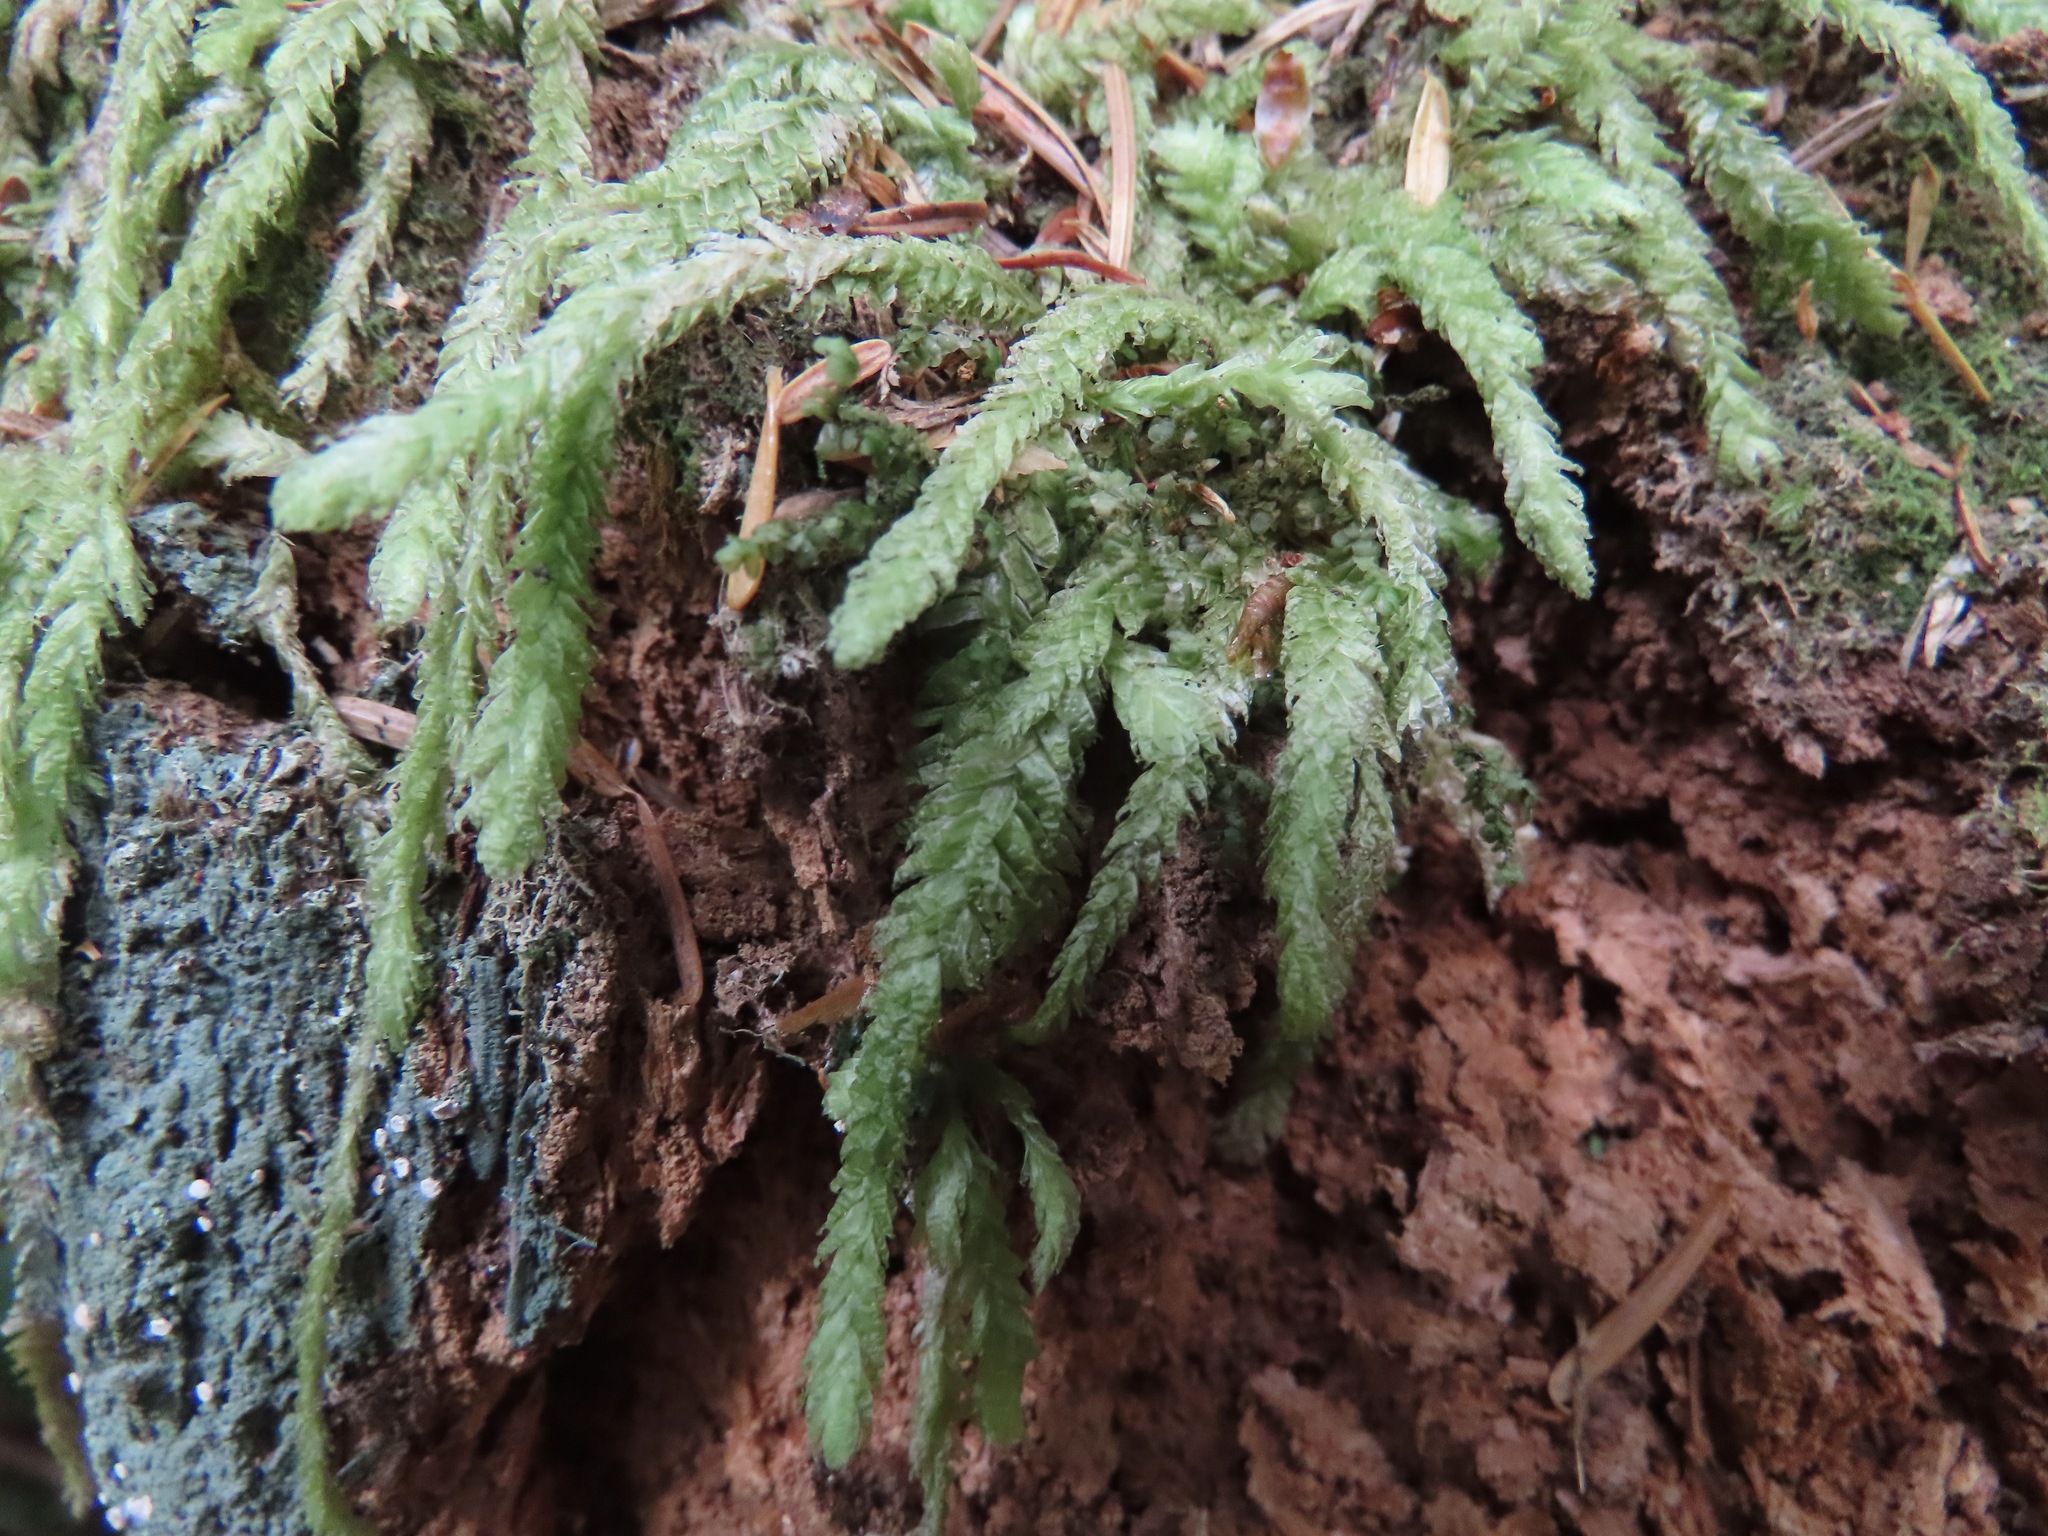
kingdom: Plantae
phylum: Bryophyta
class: Bryopsida
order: Hypnales
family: Plagiotheciaceae
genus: Plagiothecium
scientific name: Plagiothecium undulatum
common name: Waved silk-moss
